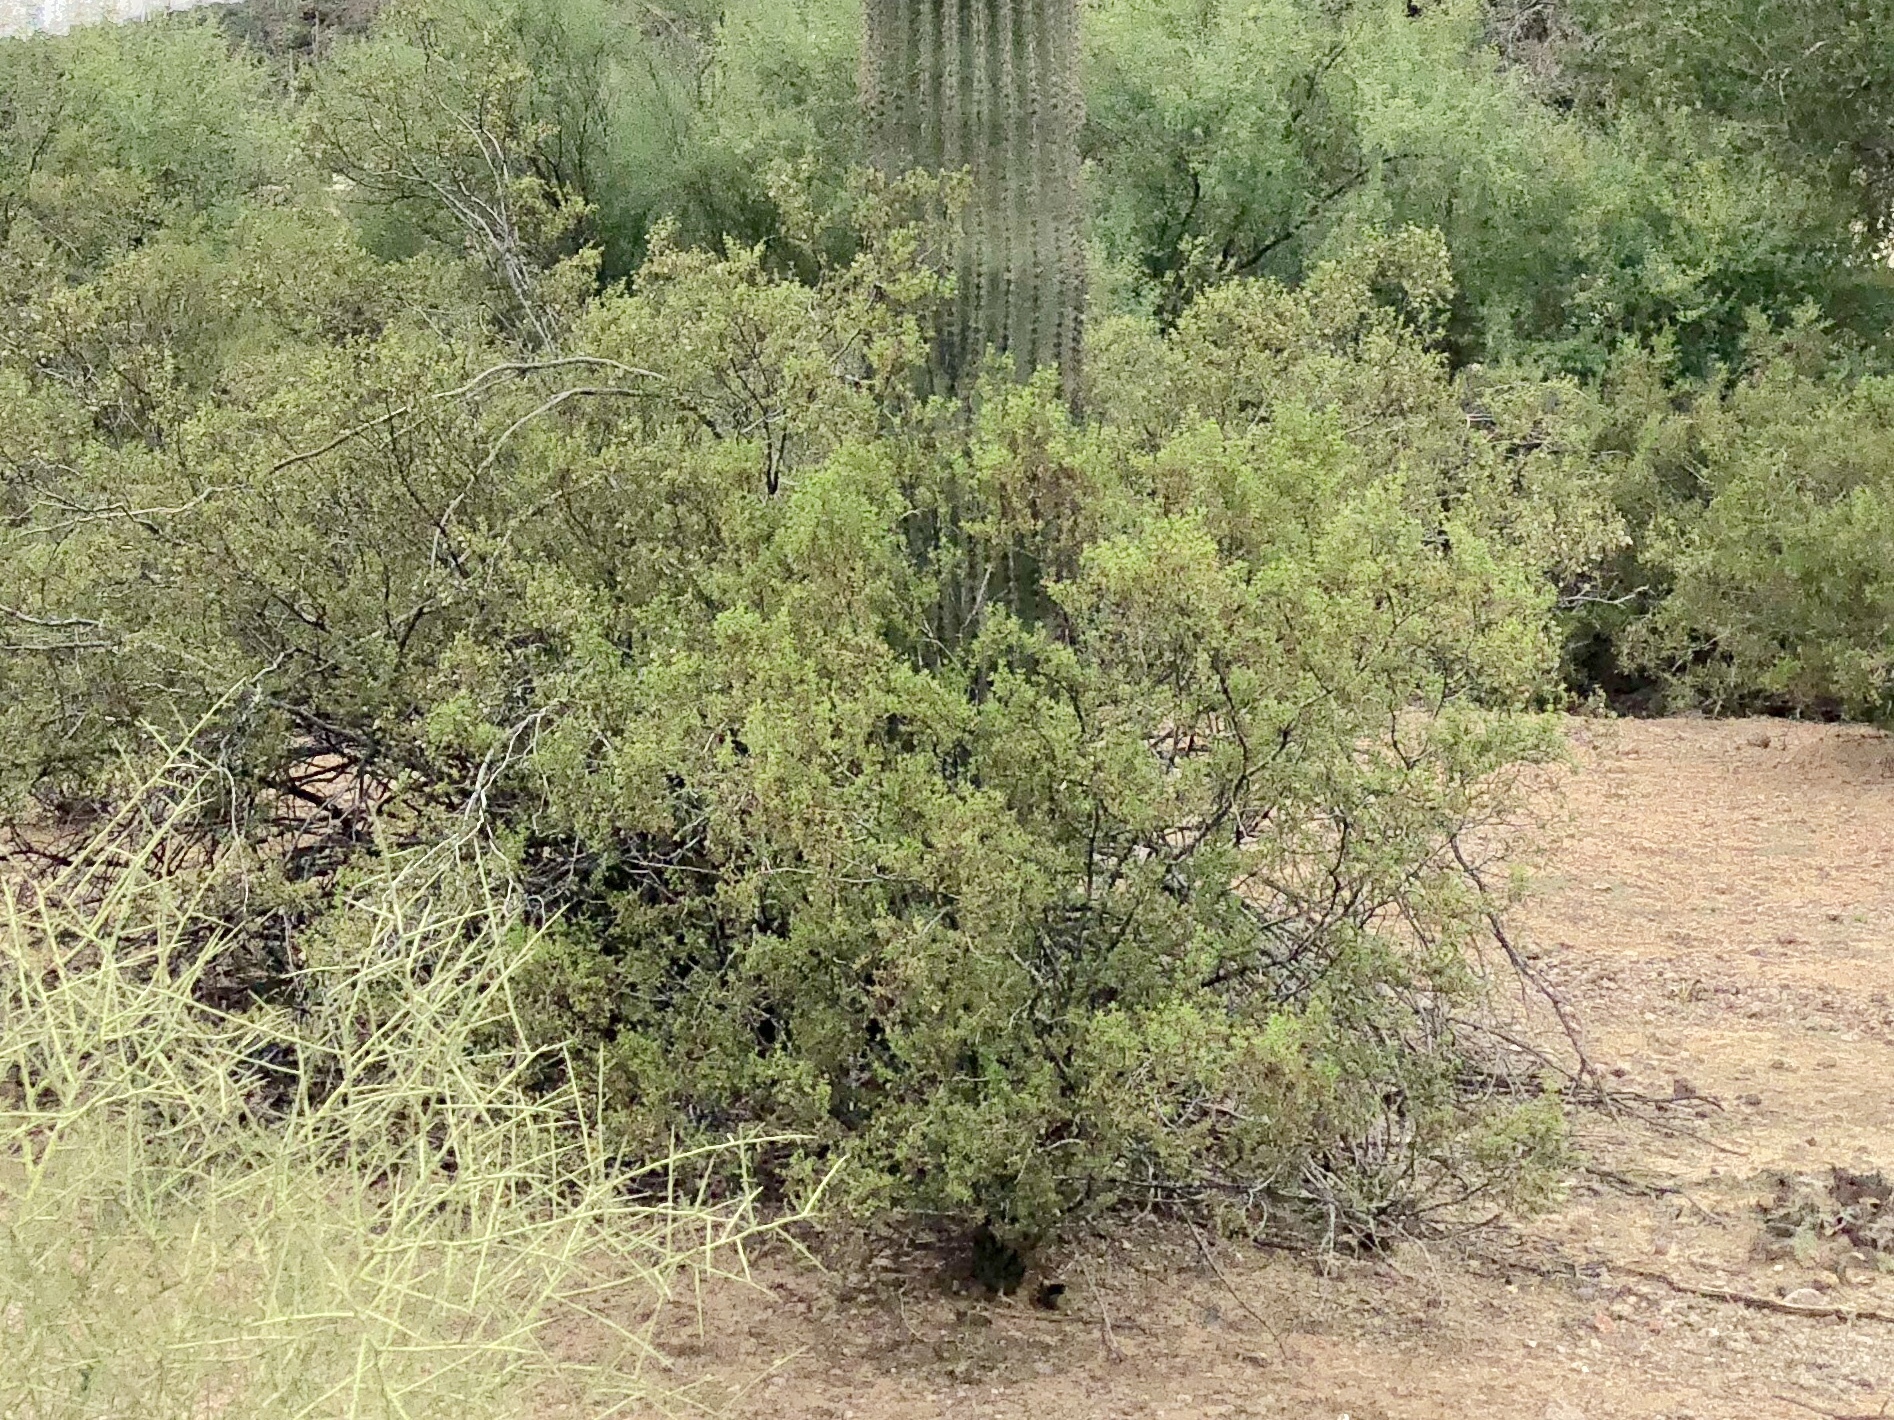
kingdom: Plantae
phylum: Tracheophyta
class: Magnoliopsida
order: Fabales
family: Fabaceae
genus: Vachellia
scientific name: Vachellia constricta
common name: Mescat acacia
